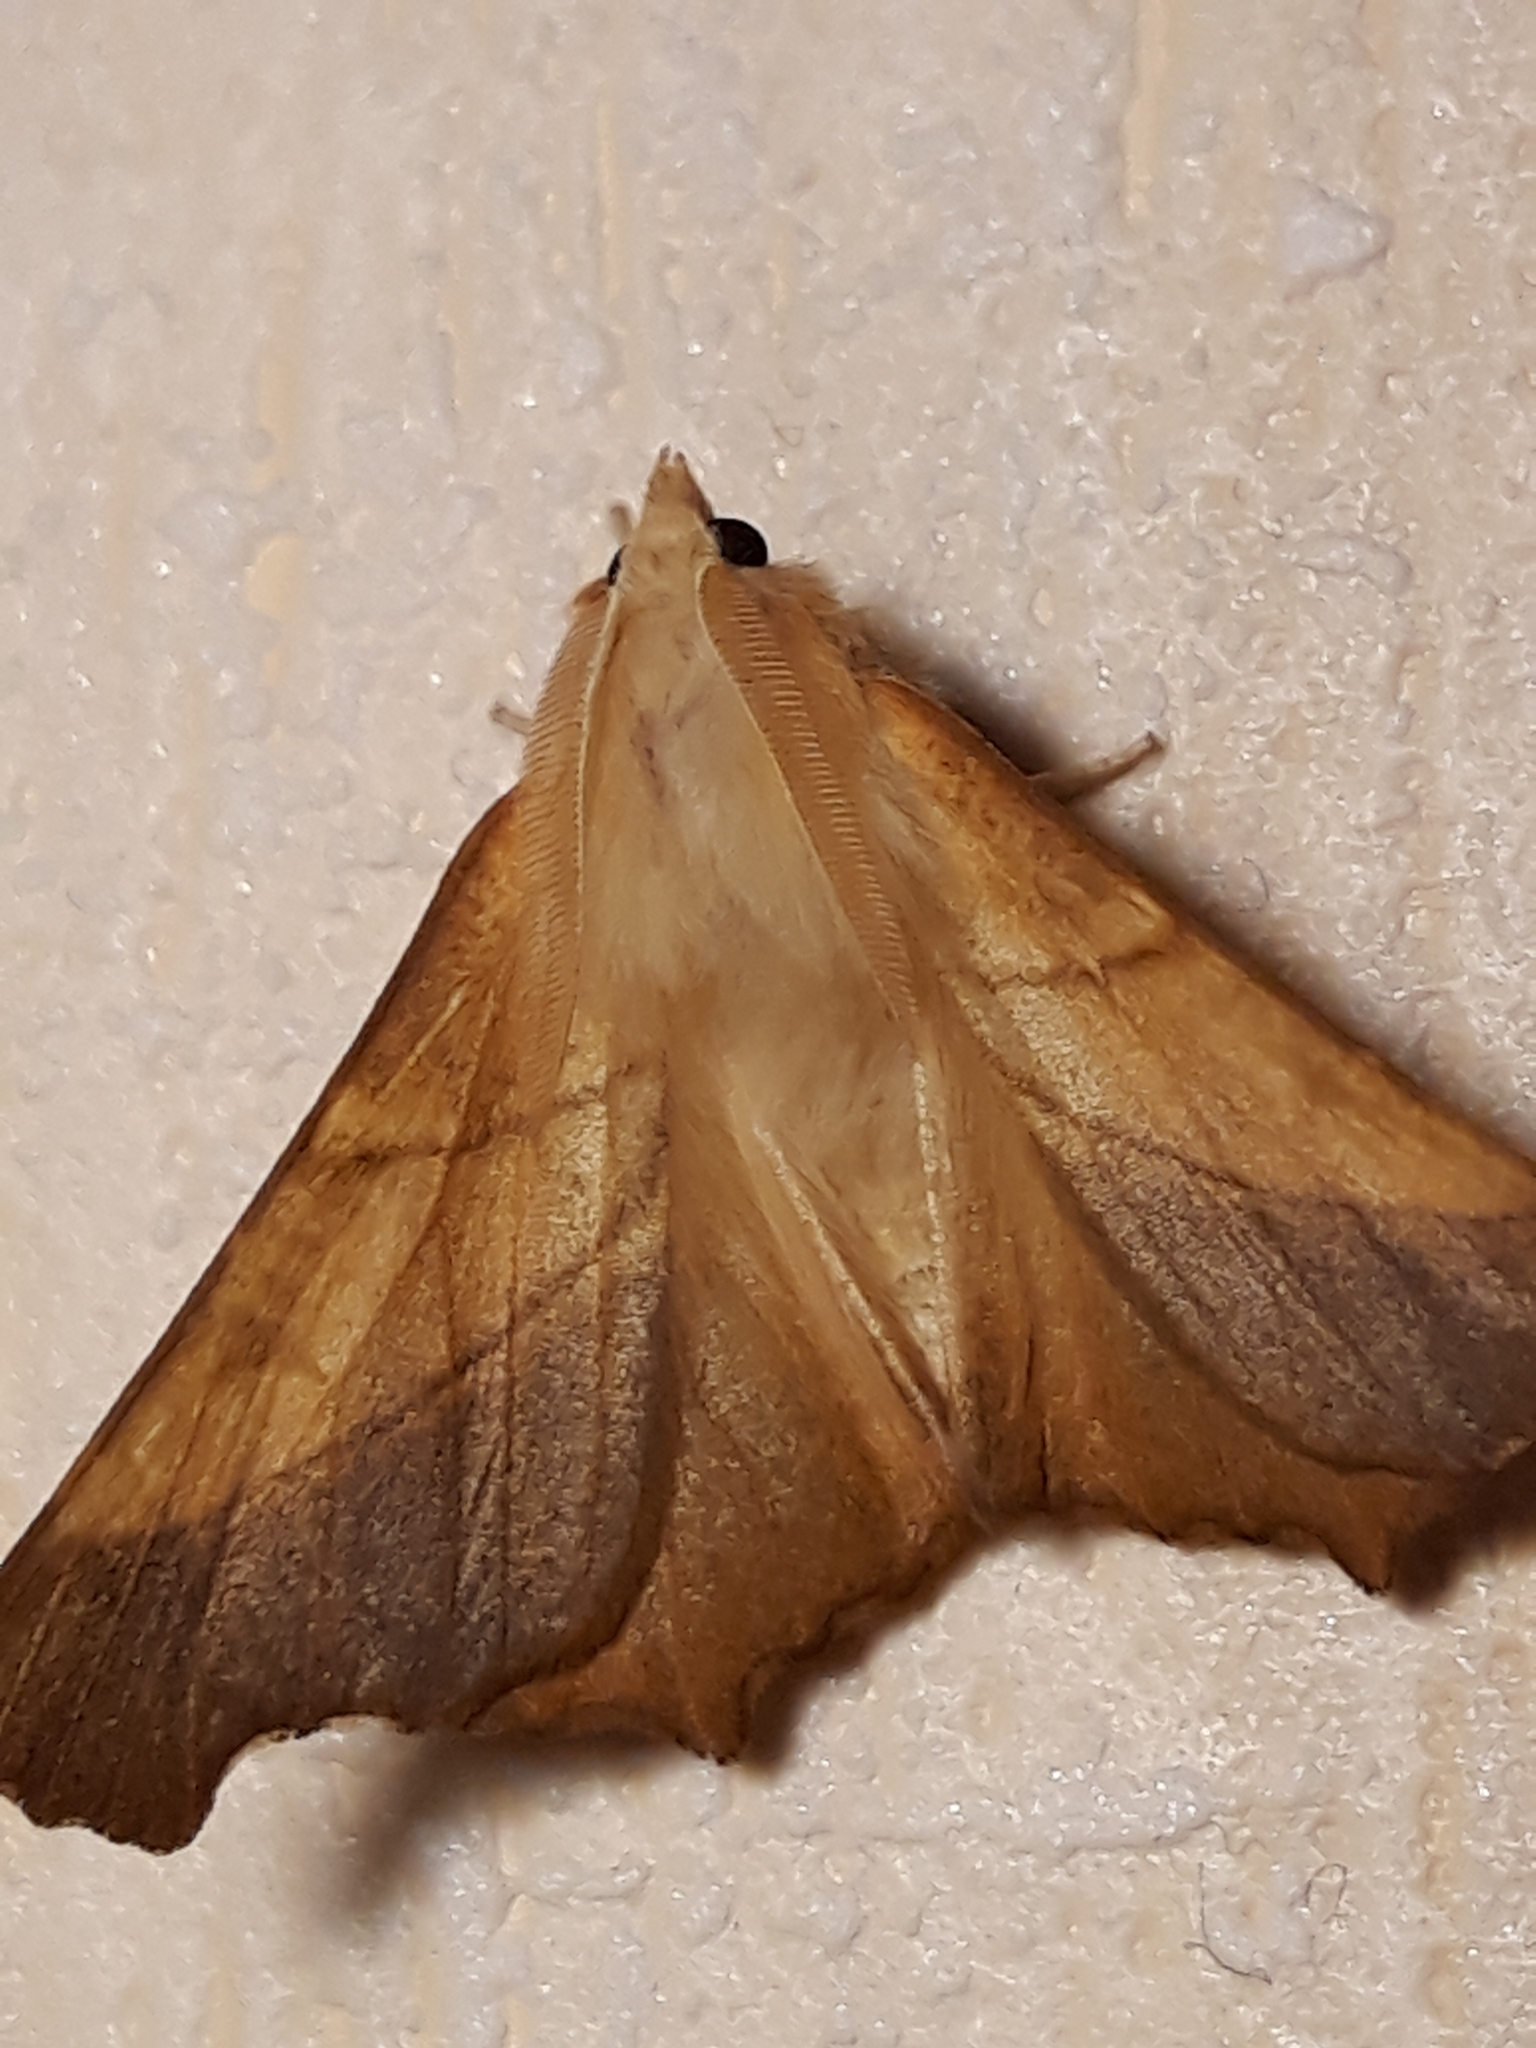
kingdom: Animalia
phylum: Arthropoda
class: Insecta
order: Lepidoptera
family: Geometridae
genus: Ennomos
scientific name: Ennomos fuscantaria
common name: Dusky thorn
